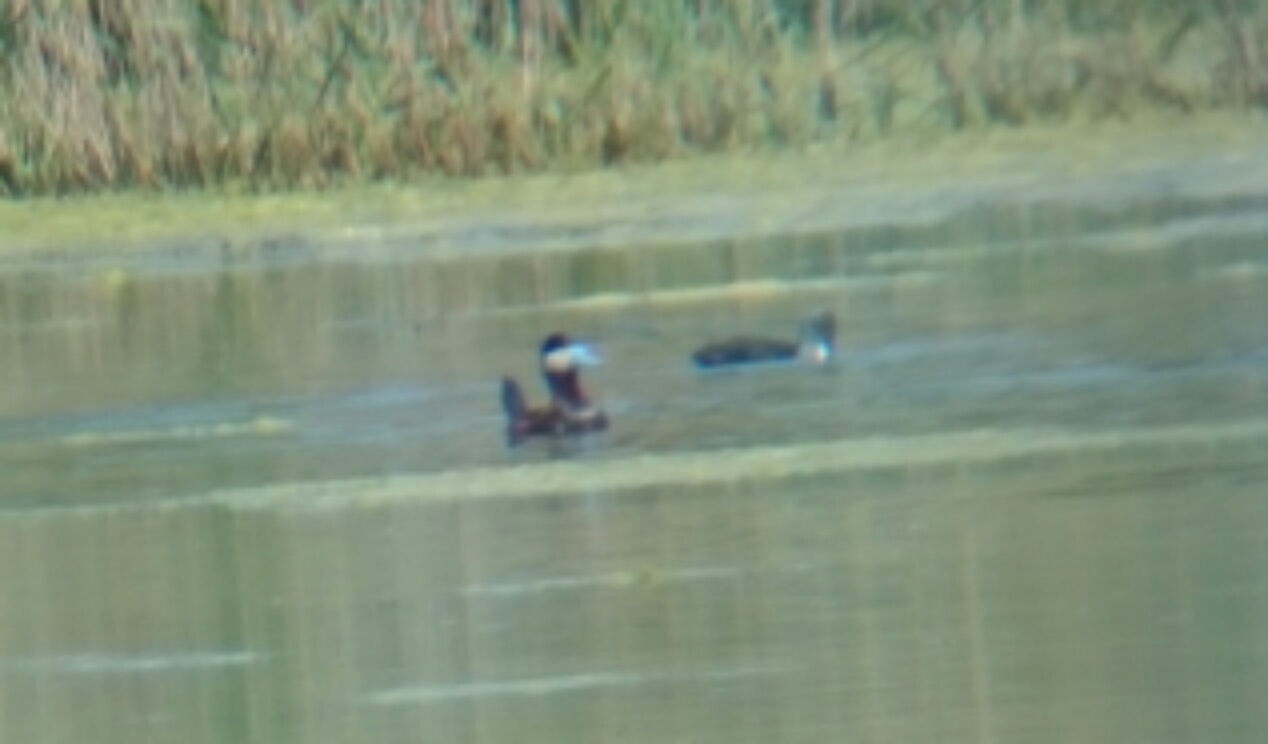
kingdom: Animalia
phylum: Chordata
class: Aves
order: Anseriformes
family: Anatidae
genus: Oxyura
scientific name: Oxyura jamaicensis
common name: Ruddy duck
